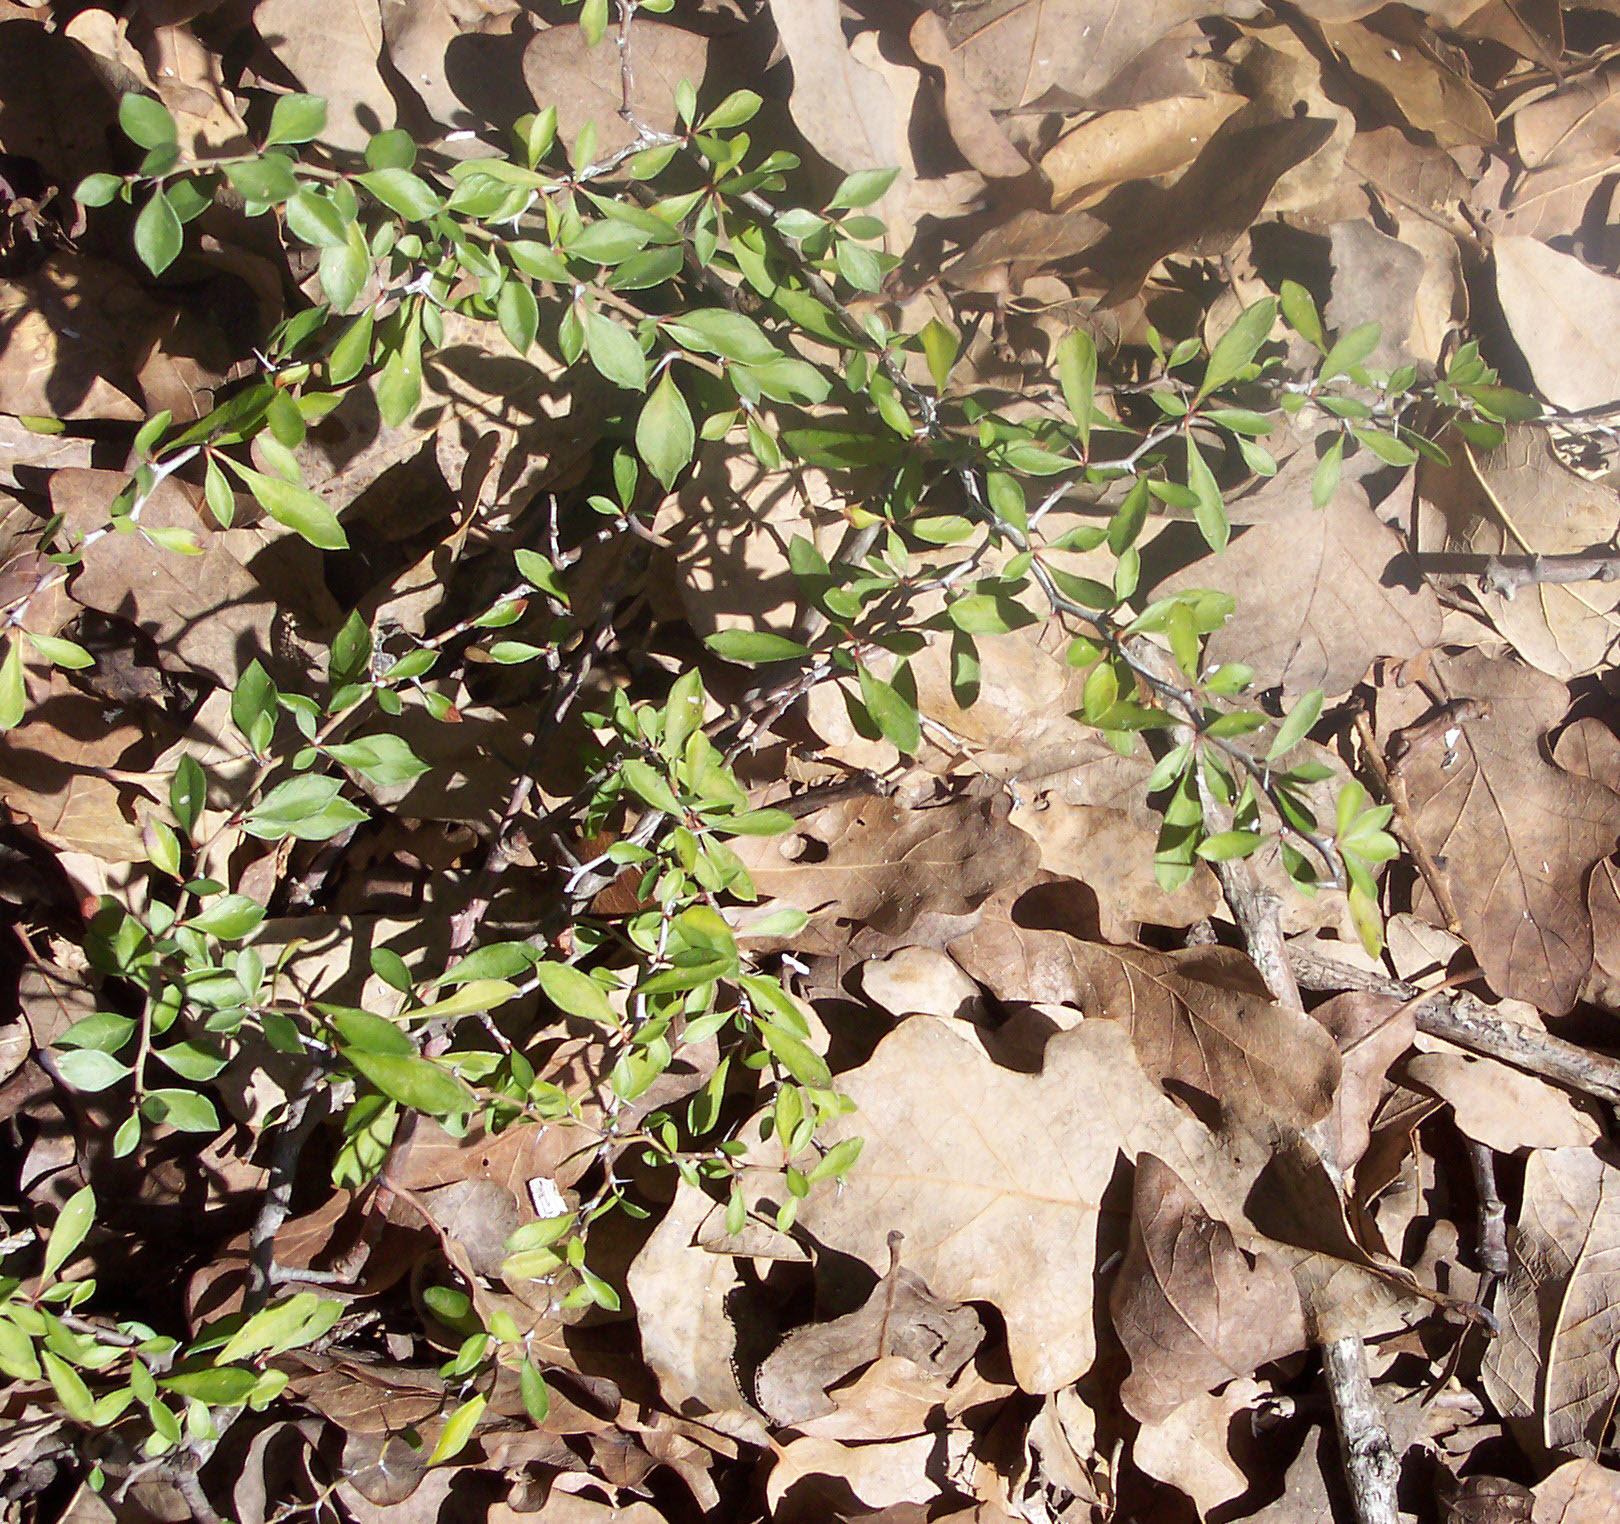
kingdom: Plantae
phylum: Tracheophyta
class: Magnoliopsida
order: Rosales
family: Rhamnaceae
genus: Condalia
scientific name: Condalia viridis
